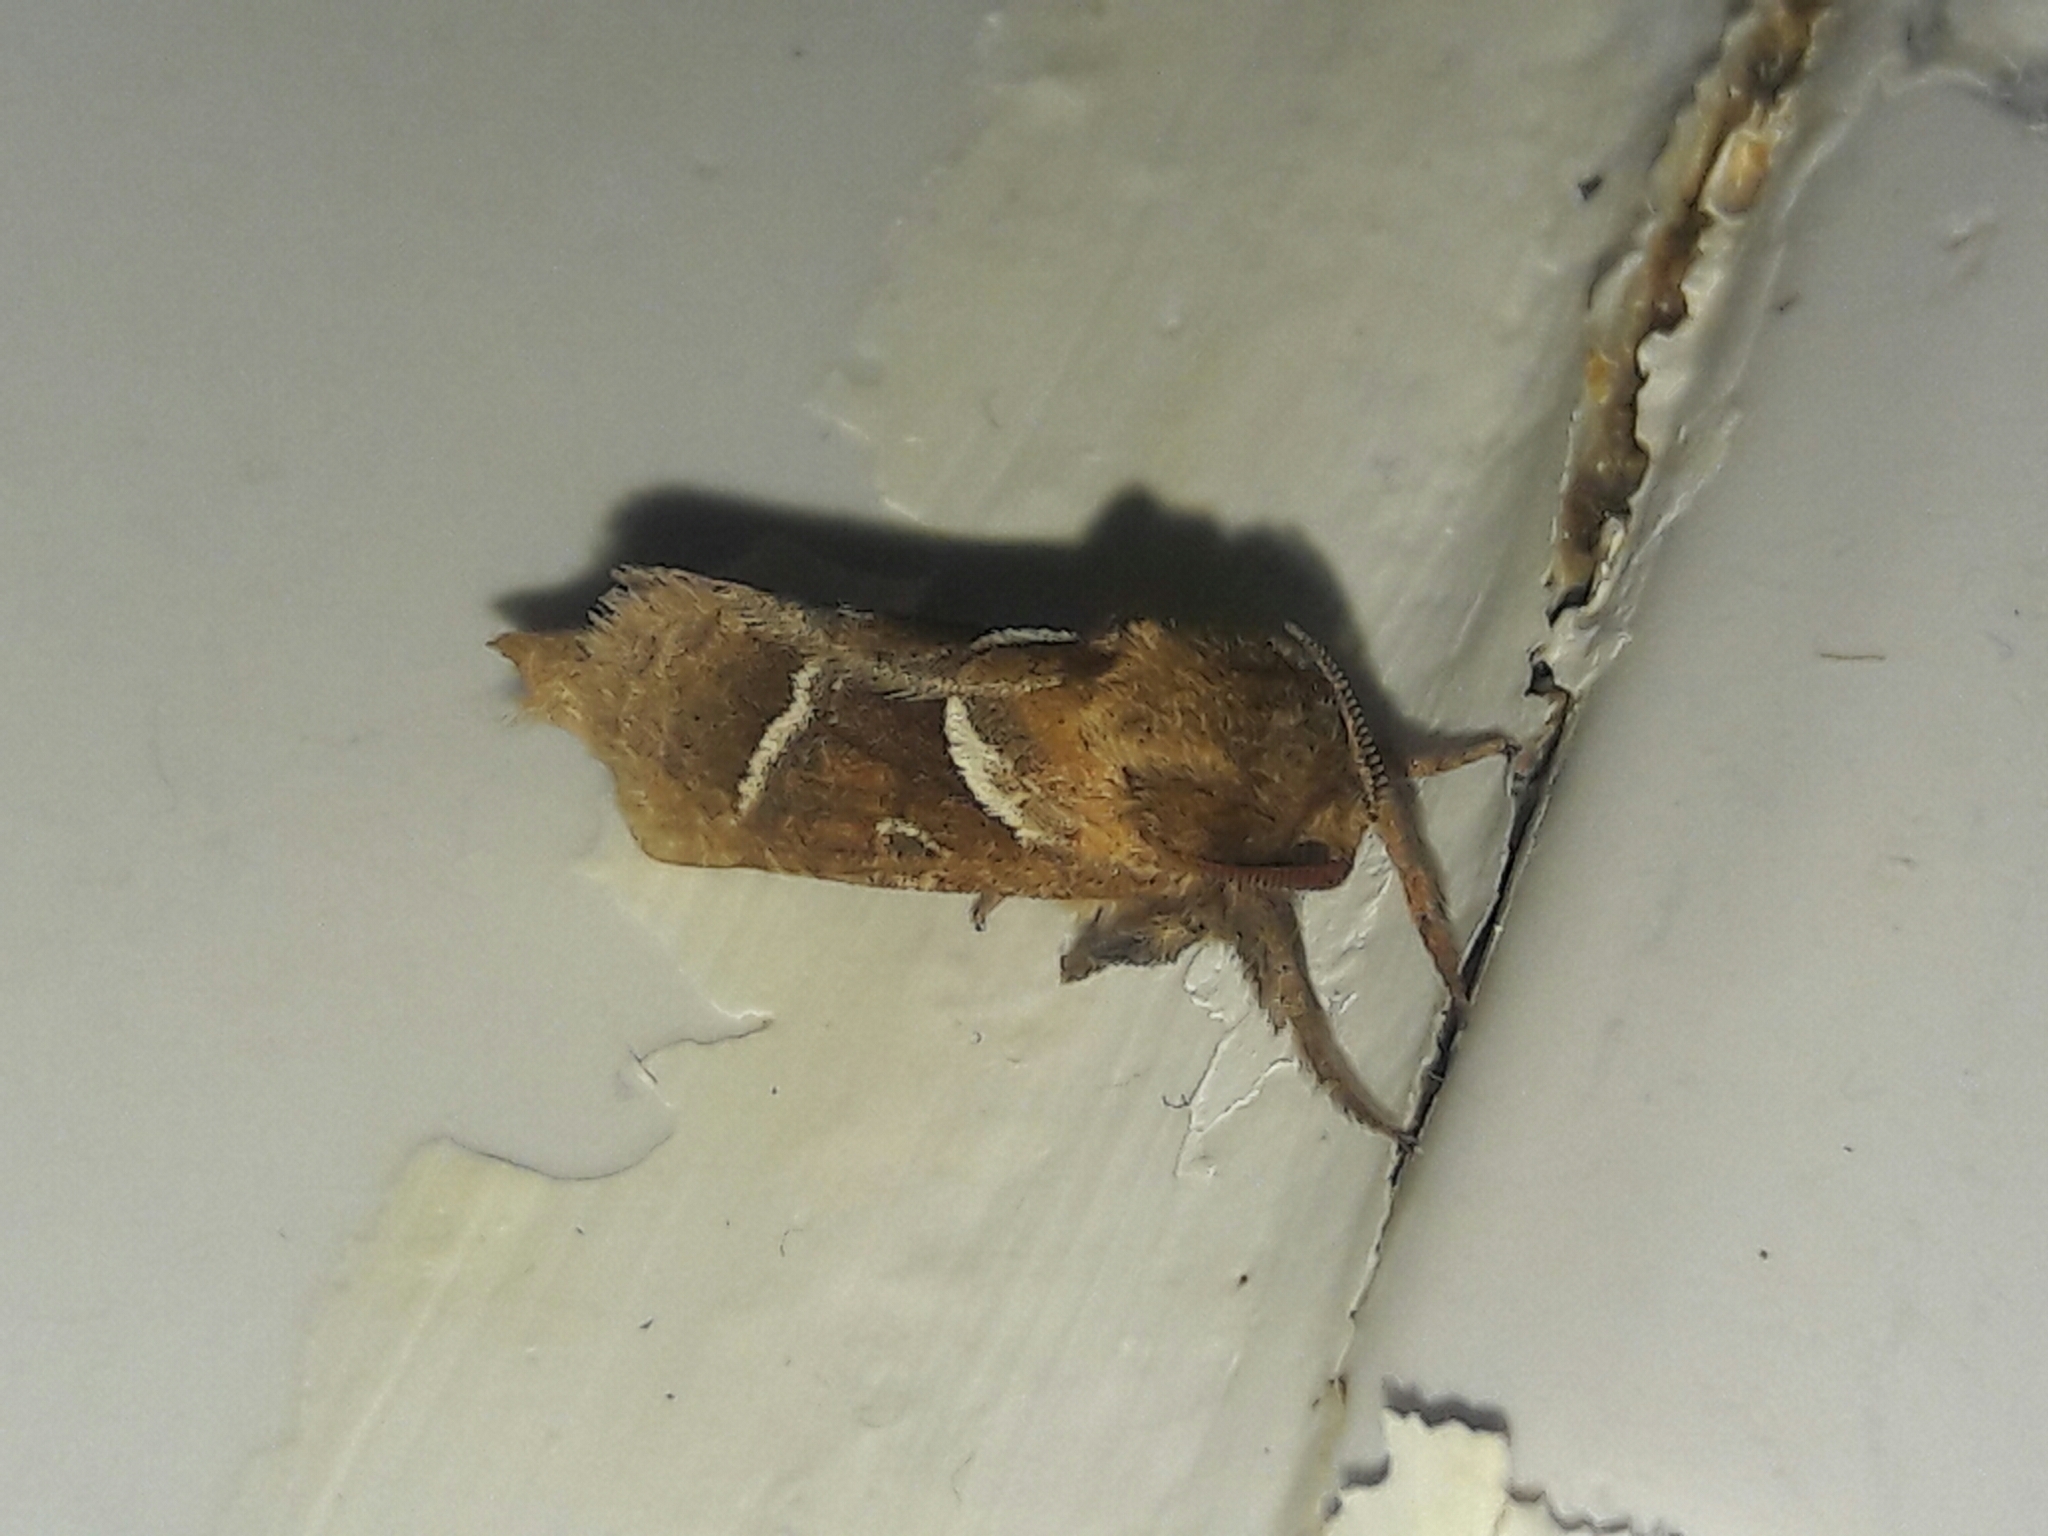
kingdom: Animalia
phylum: Arthropoda
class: Insecta
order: Lepidoptera
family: Hepialidae
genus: Triodia
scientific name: Triodia sylvina
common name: Orange swift
